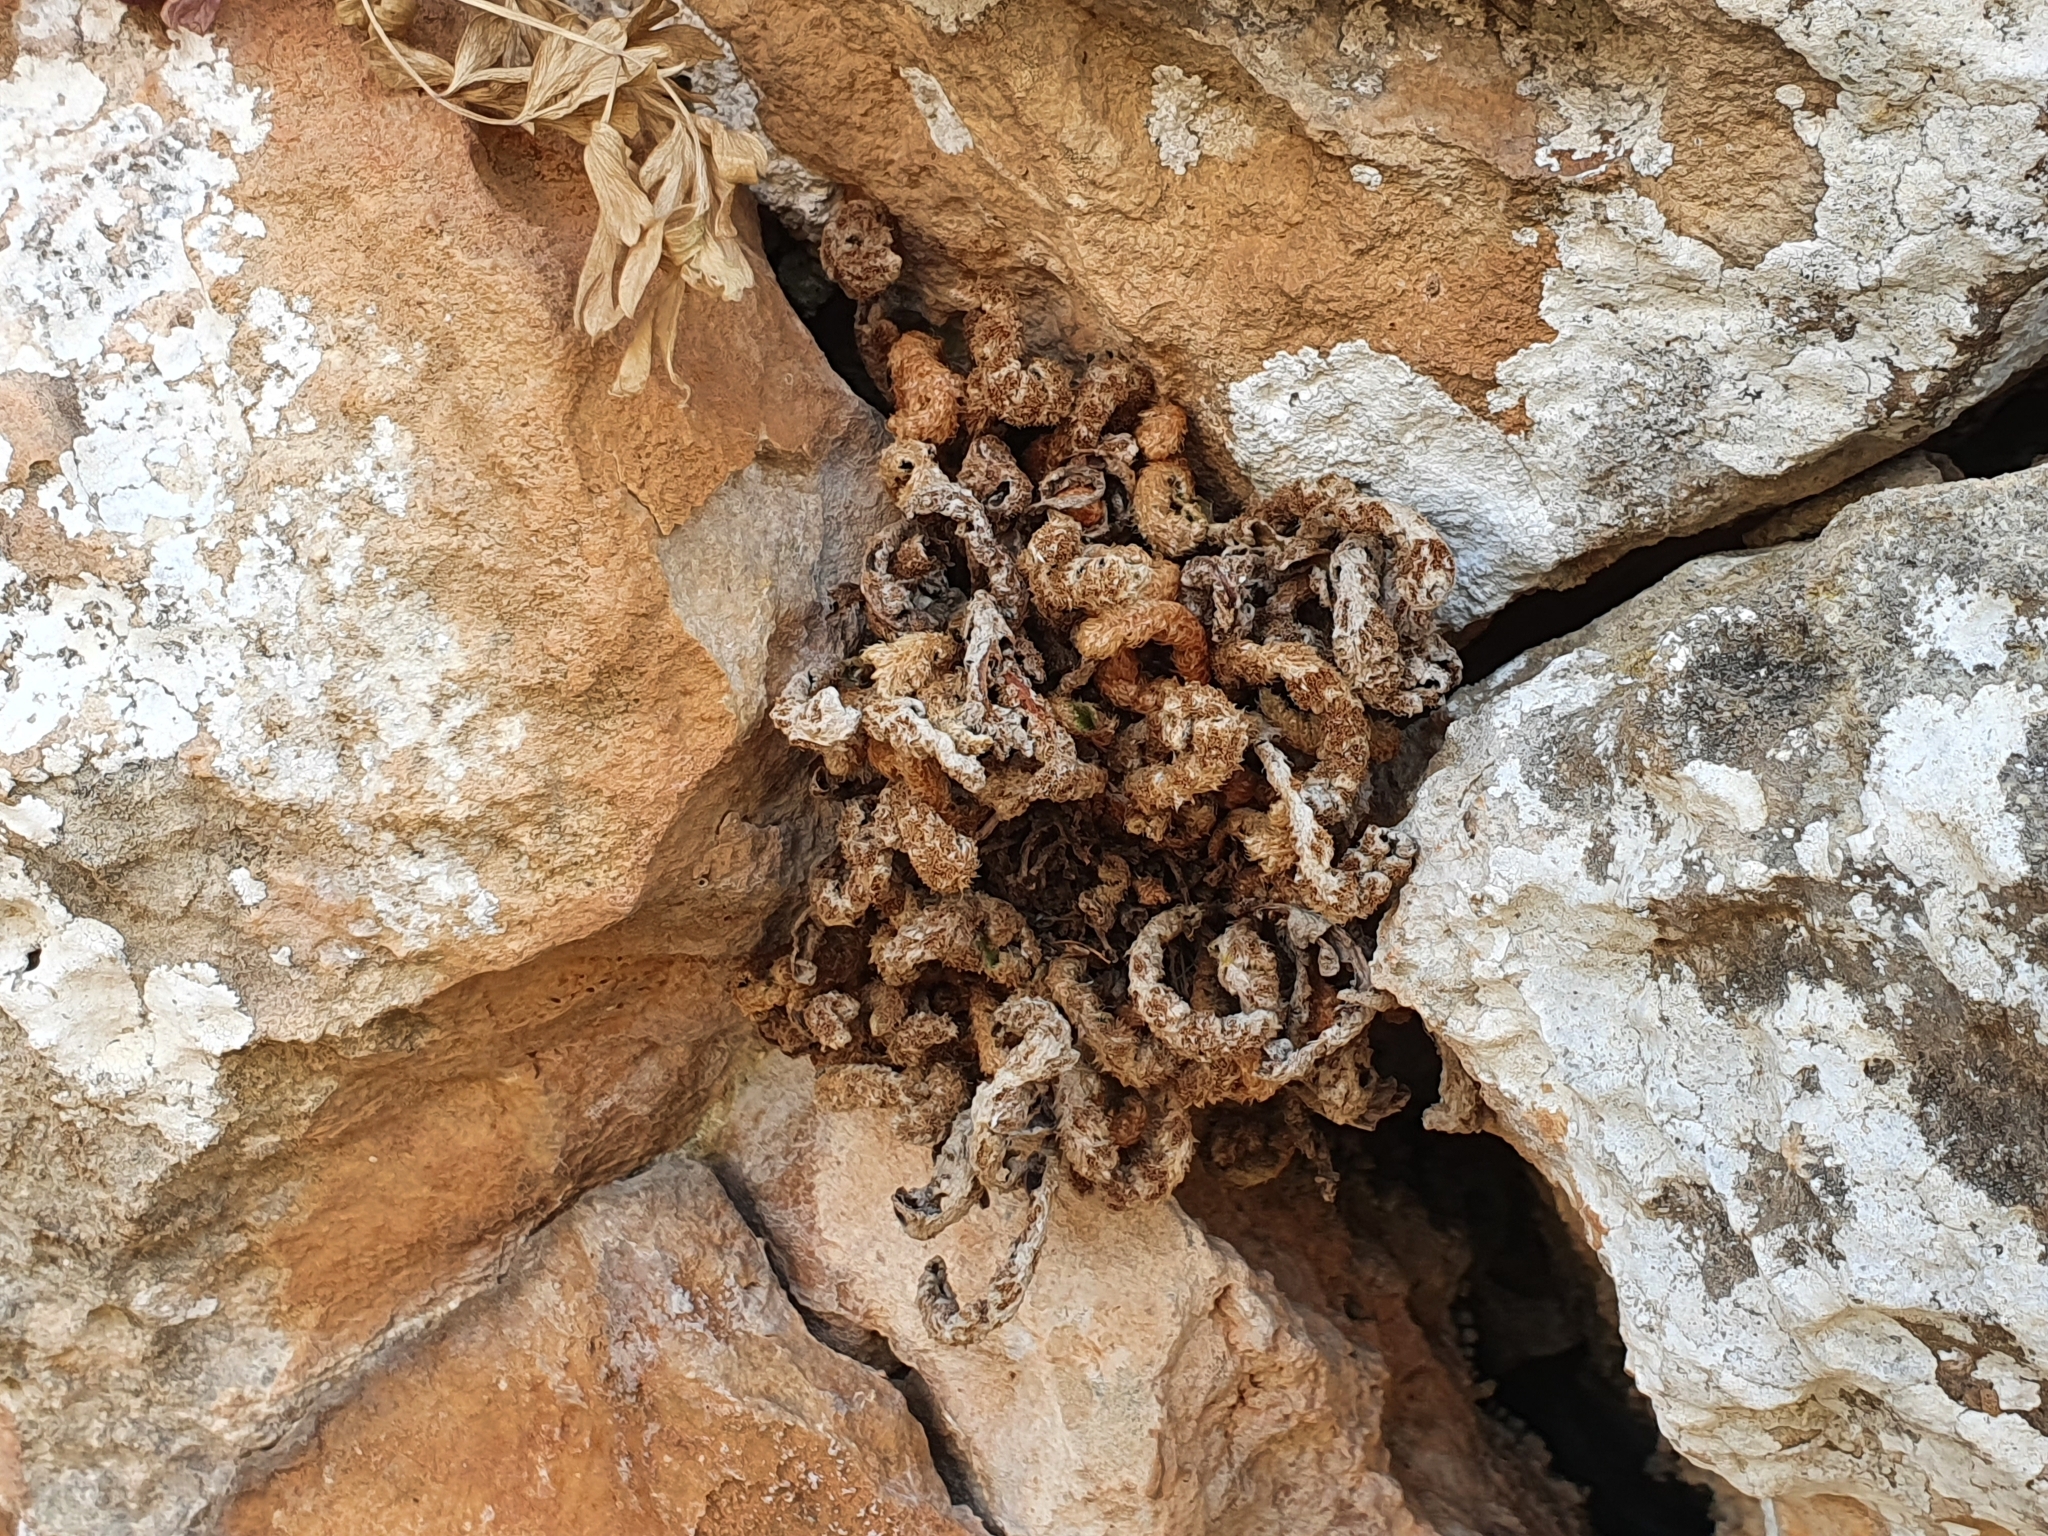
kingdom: Plantae
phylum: Tracheophyta
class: Polypodiopsida
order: Polypodiales
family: Aspleniaceae
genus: Asplenium
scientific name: Asplenium ceterach
